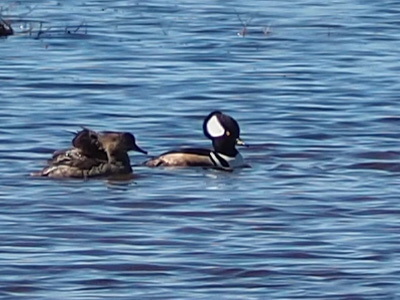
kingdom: Animalia
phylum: Chordata
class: Aves
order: Anseriformes
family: Anatidae
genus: Lophodytes
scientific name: Lophodytes cucullatus
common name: Hooded merganser
